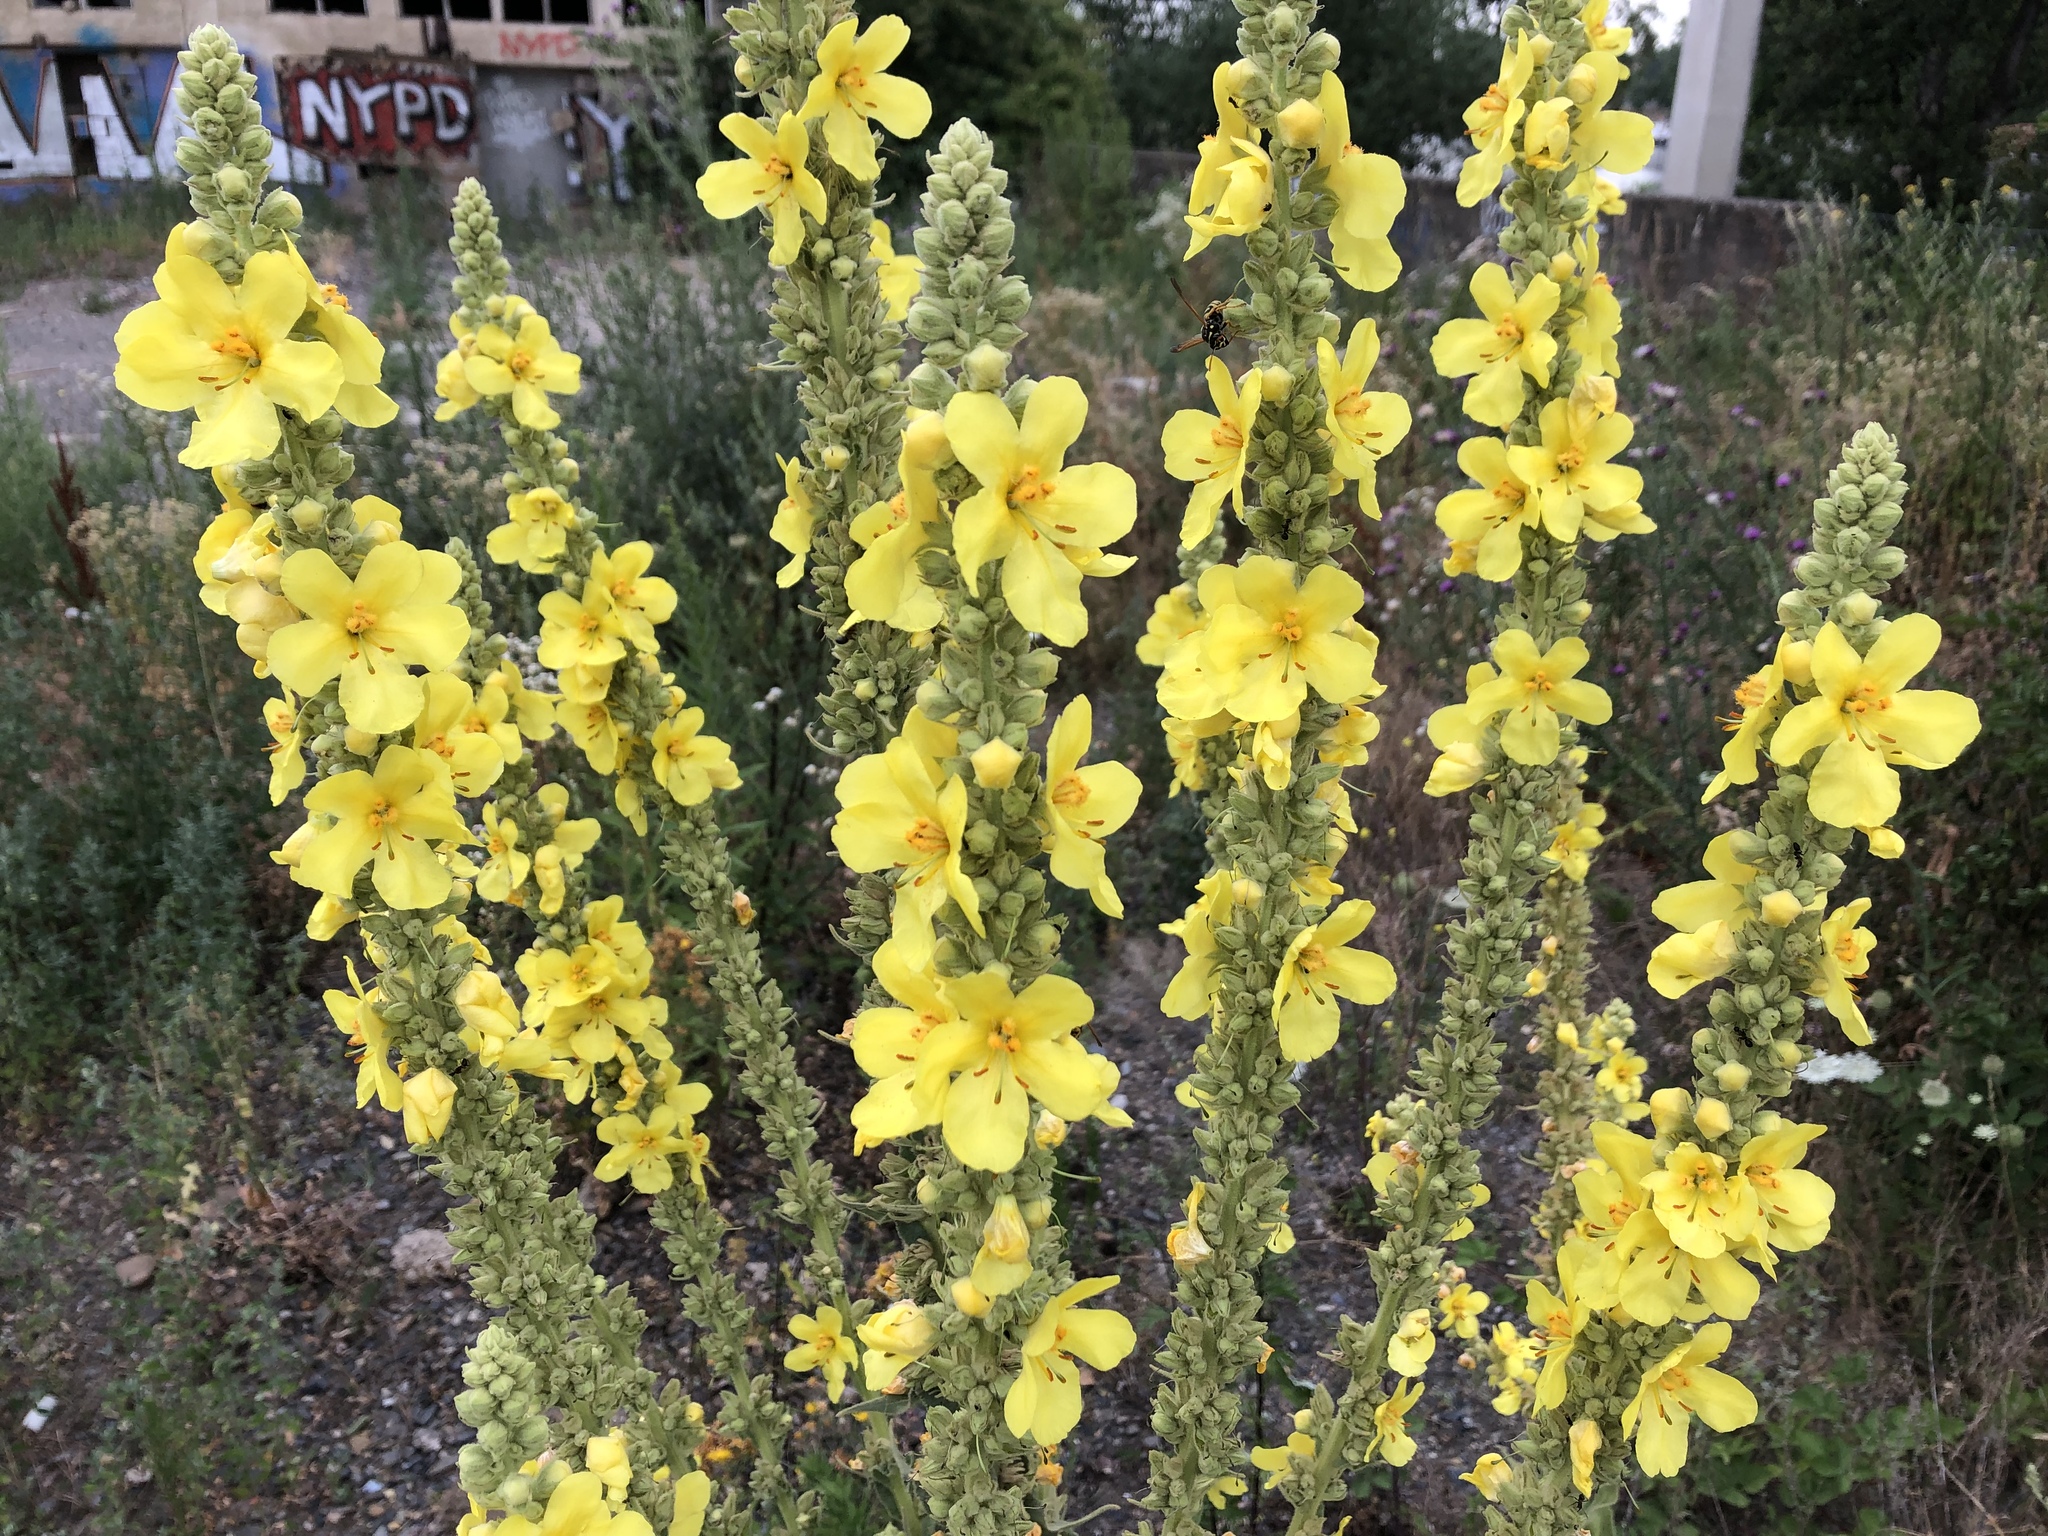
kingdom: Plantae
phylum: Tracheophyta
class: Magnoliopsida
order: Lamiales
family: Scrophulariaceae
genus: Verbascum
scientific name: Verbascum thapsus
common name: Common mullein
